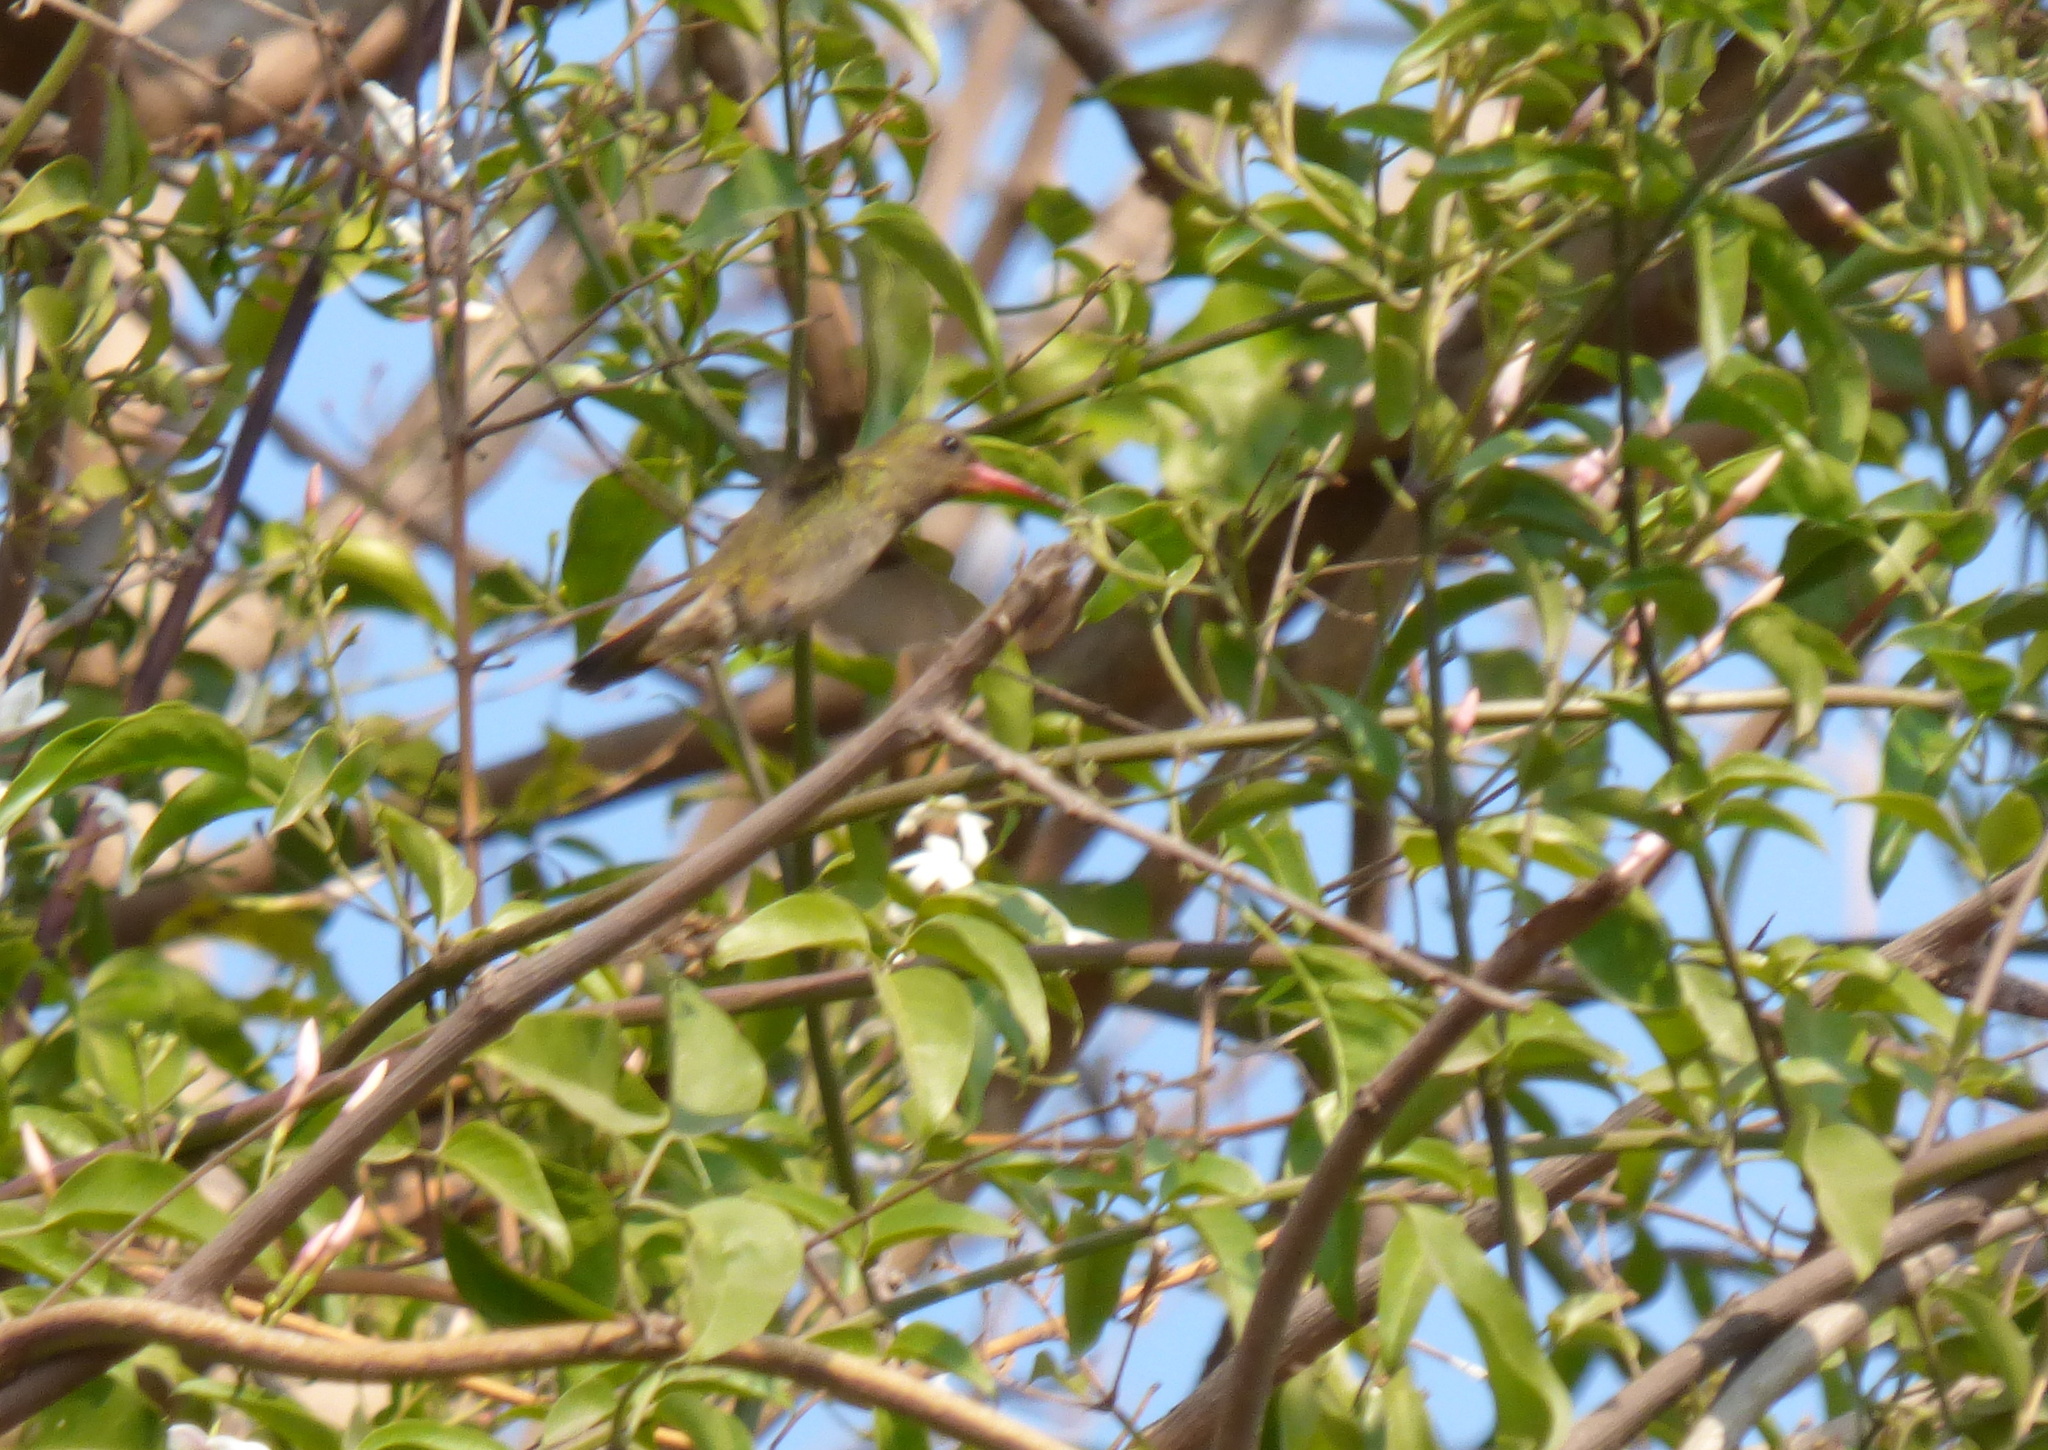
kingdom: Animalia
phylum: Chordata
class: Aves
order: Apodiformes
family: Trochilidae
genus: Hylocharis
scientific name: Hylocharis chrysura
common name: Gilded sapphire
